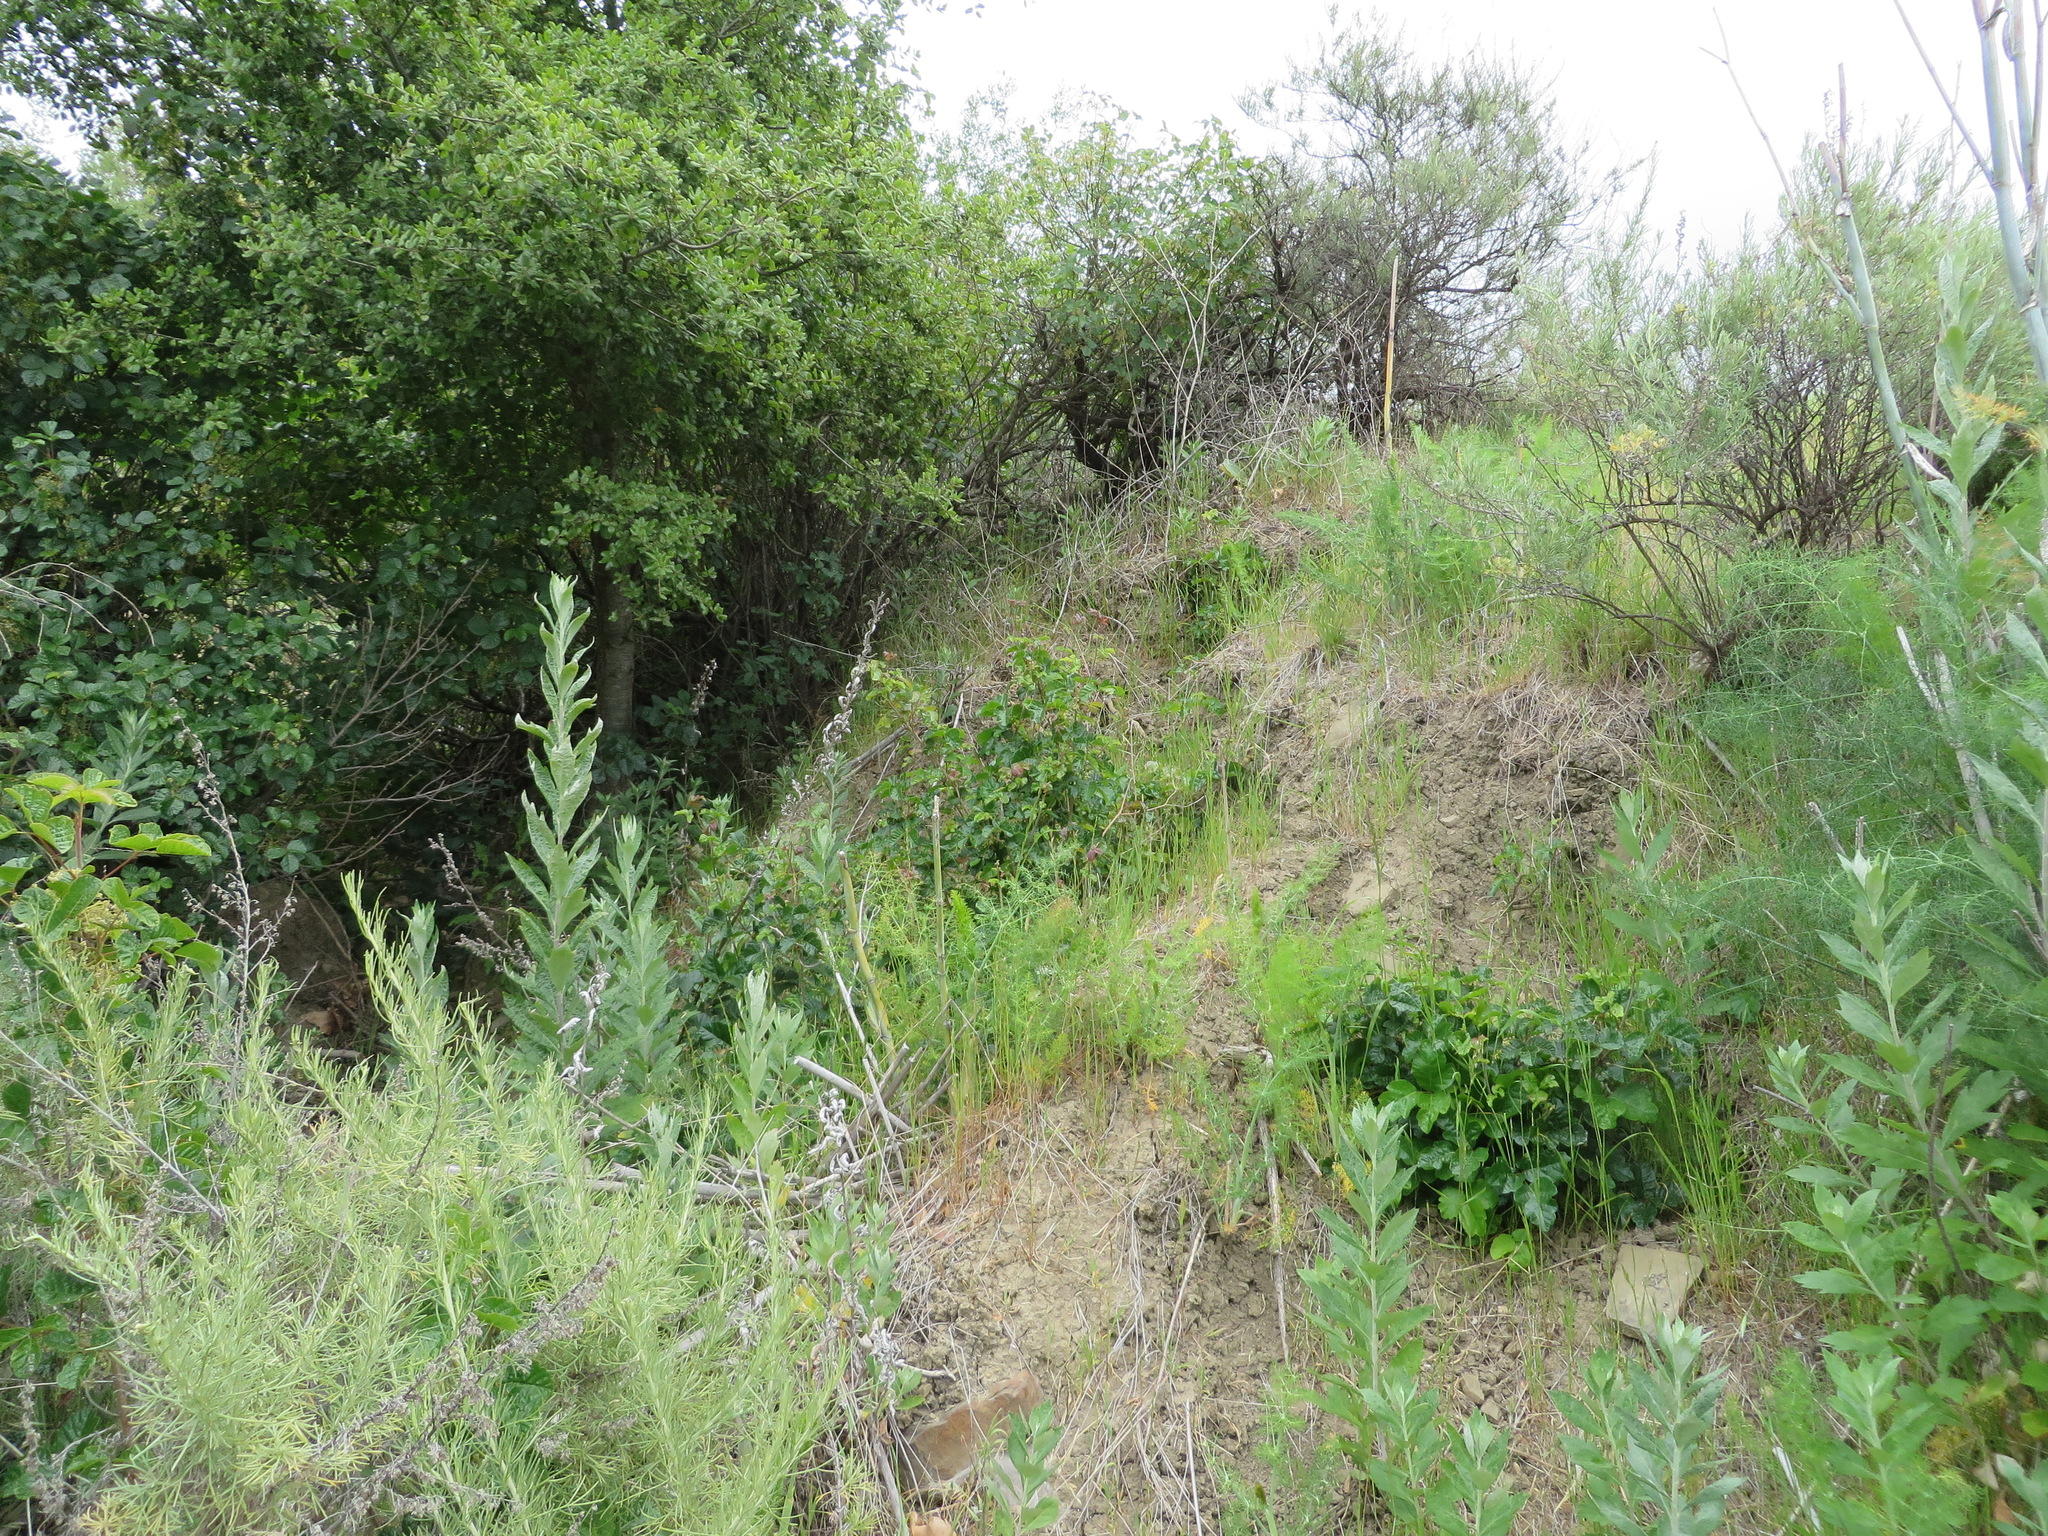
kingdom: Plantae
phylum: Tracheophyta
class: Magnoliopsida
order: Asterales
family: Asteraceae
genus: Artemisia
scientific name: Artemisia douglasiana
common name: Northwest mugwort
